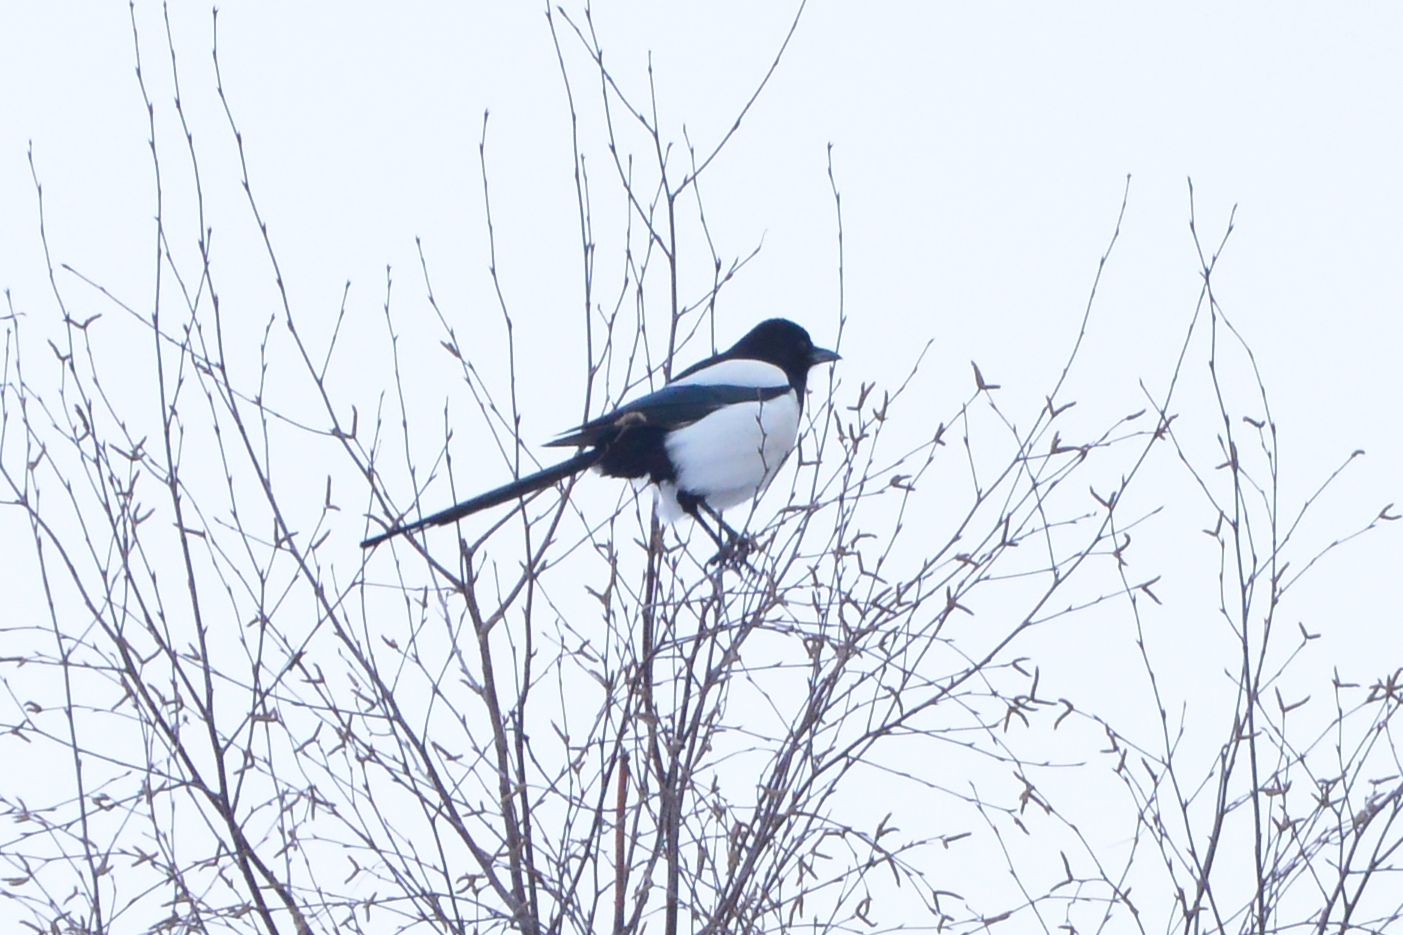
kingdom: Animalia
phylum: Chordata
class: Aves
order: Passeriformes
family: Corvidae
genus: Pica
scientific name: Pica pica
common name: Eurasian magpie
